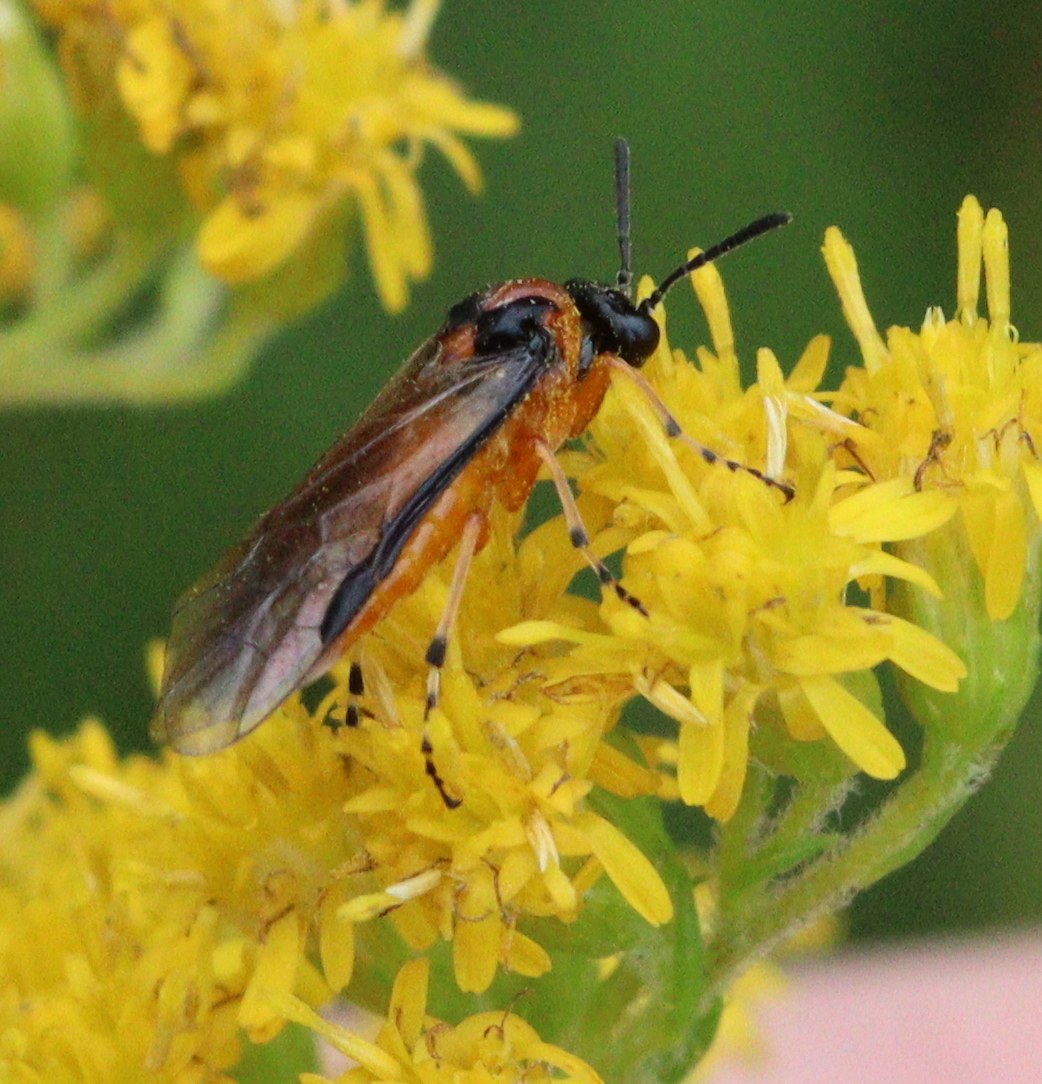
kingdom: Animalia
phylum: Arthropoda
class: Insecta
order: Hymenoptera
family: Tenthredinidae
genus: Athalia
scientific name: Athalia rosae
